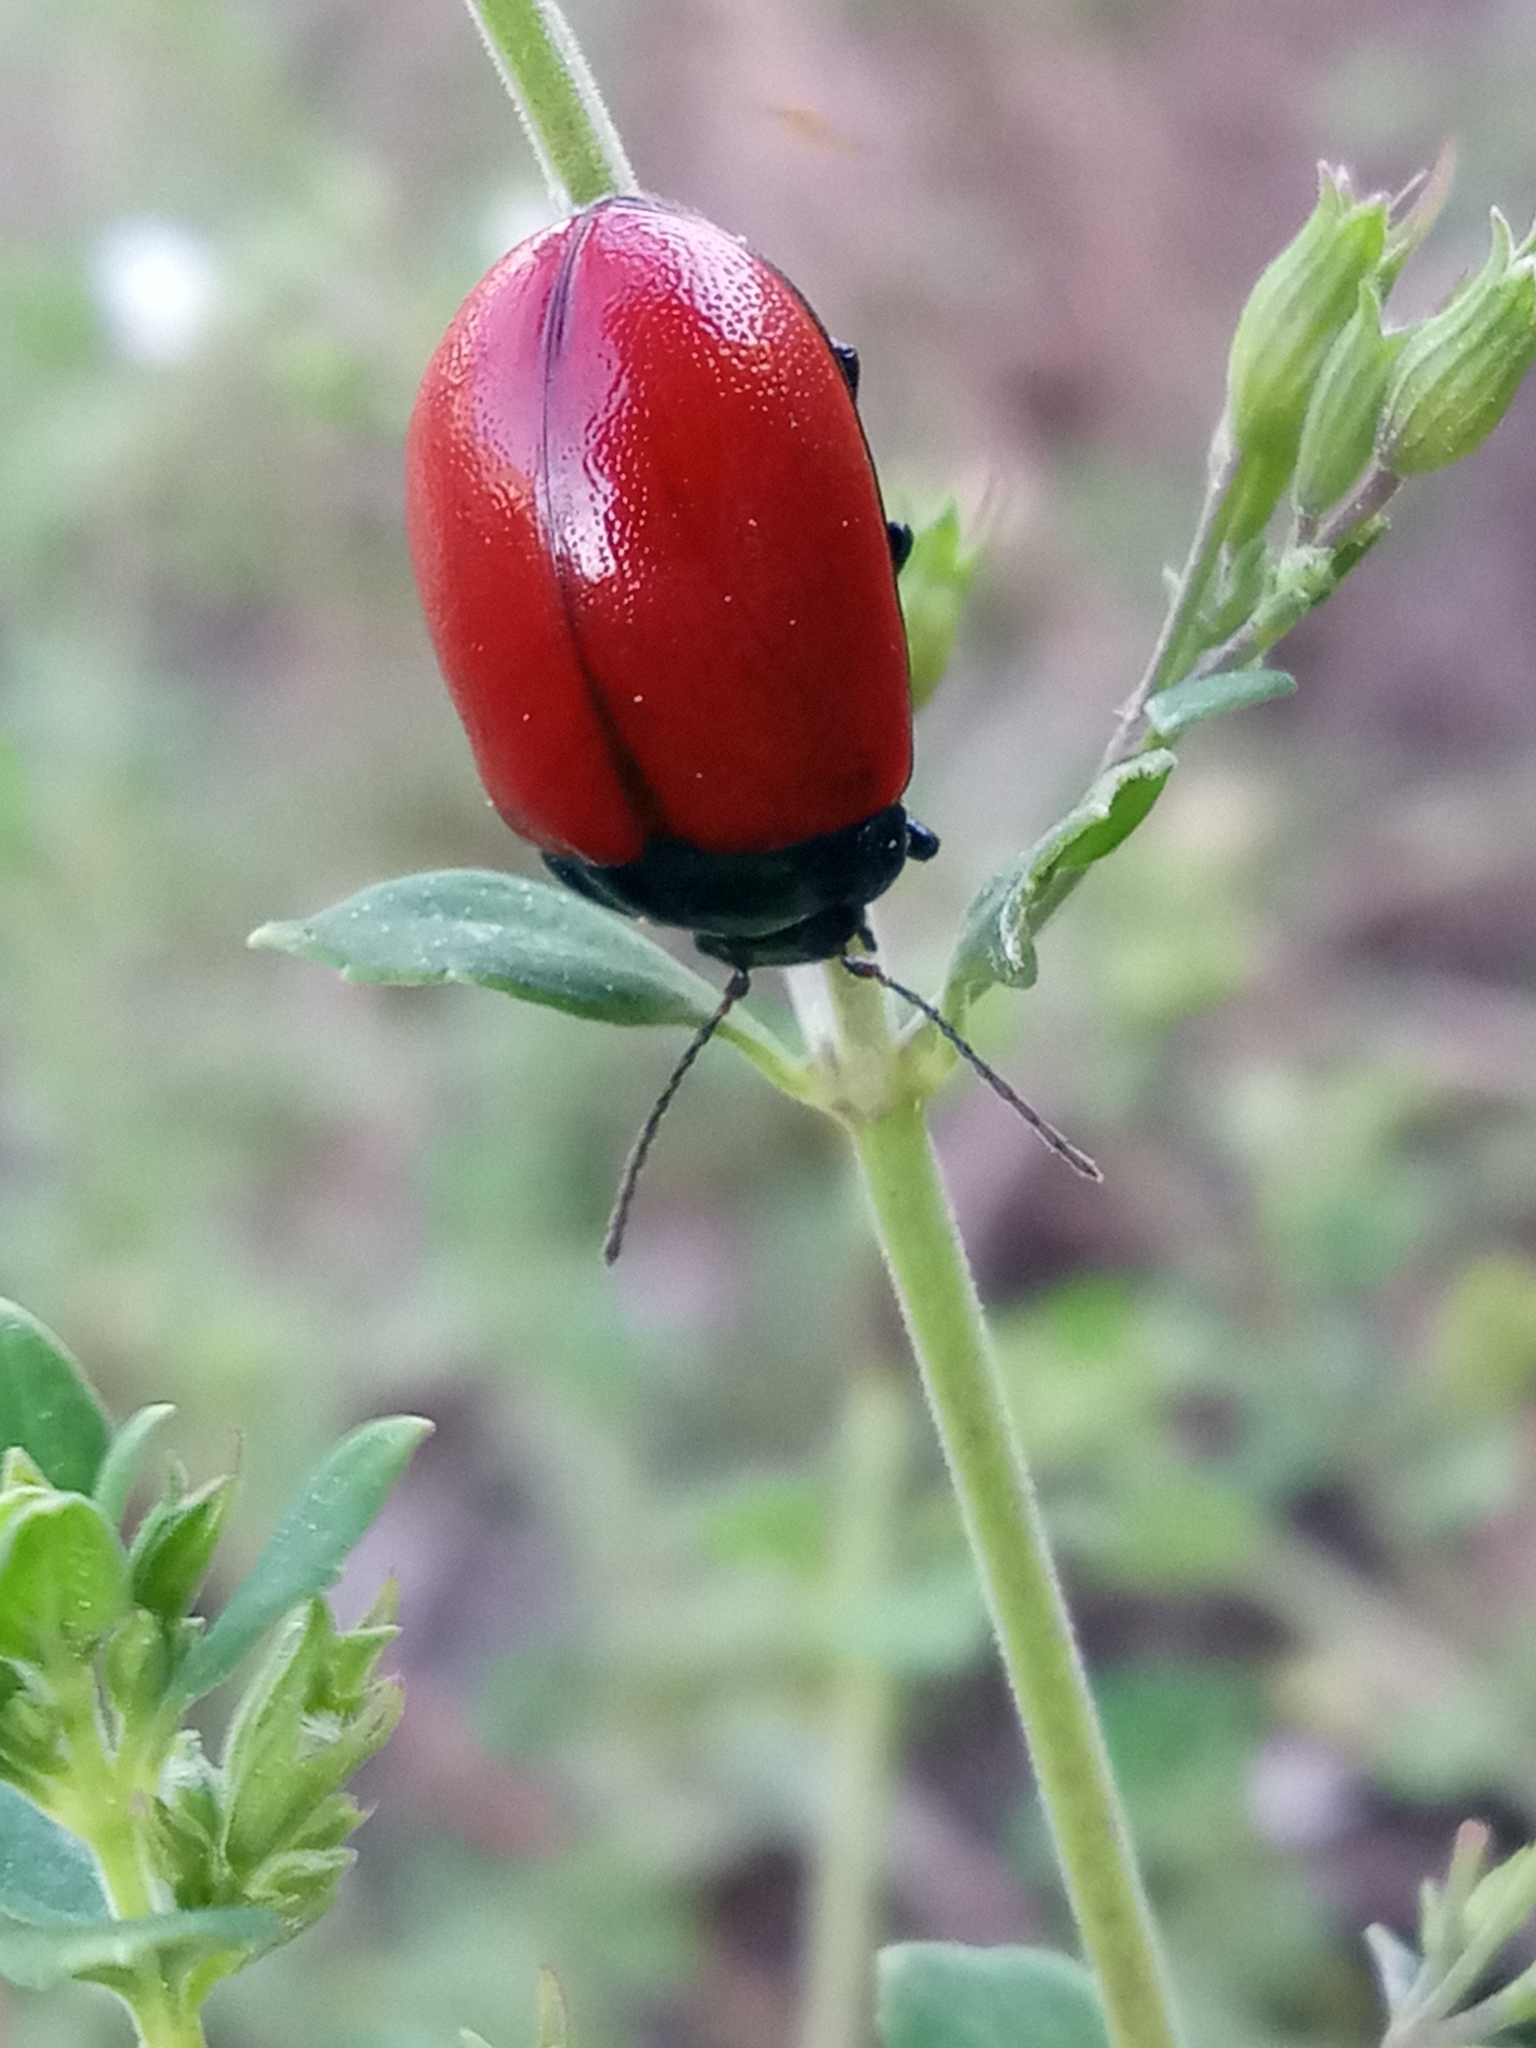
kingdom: Animalia
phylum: Arthropoda
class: Insecta
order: Coleoptera
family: Chrysomelidae
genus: Chrysolina
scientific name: Chrysolina grossa
